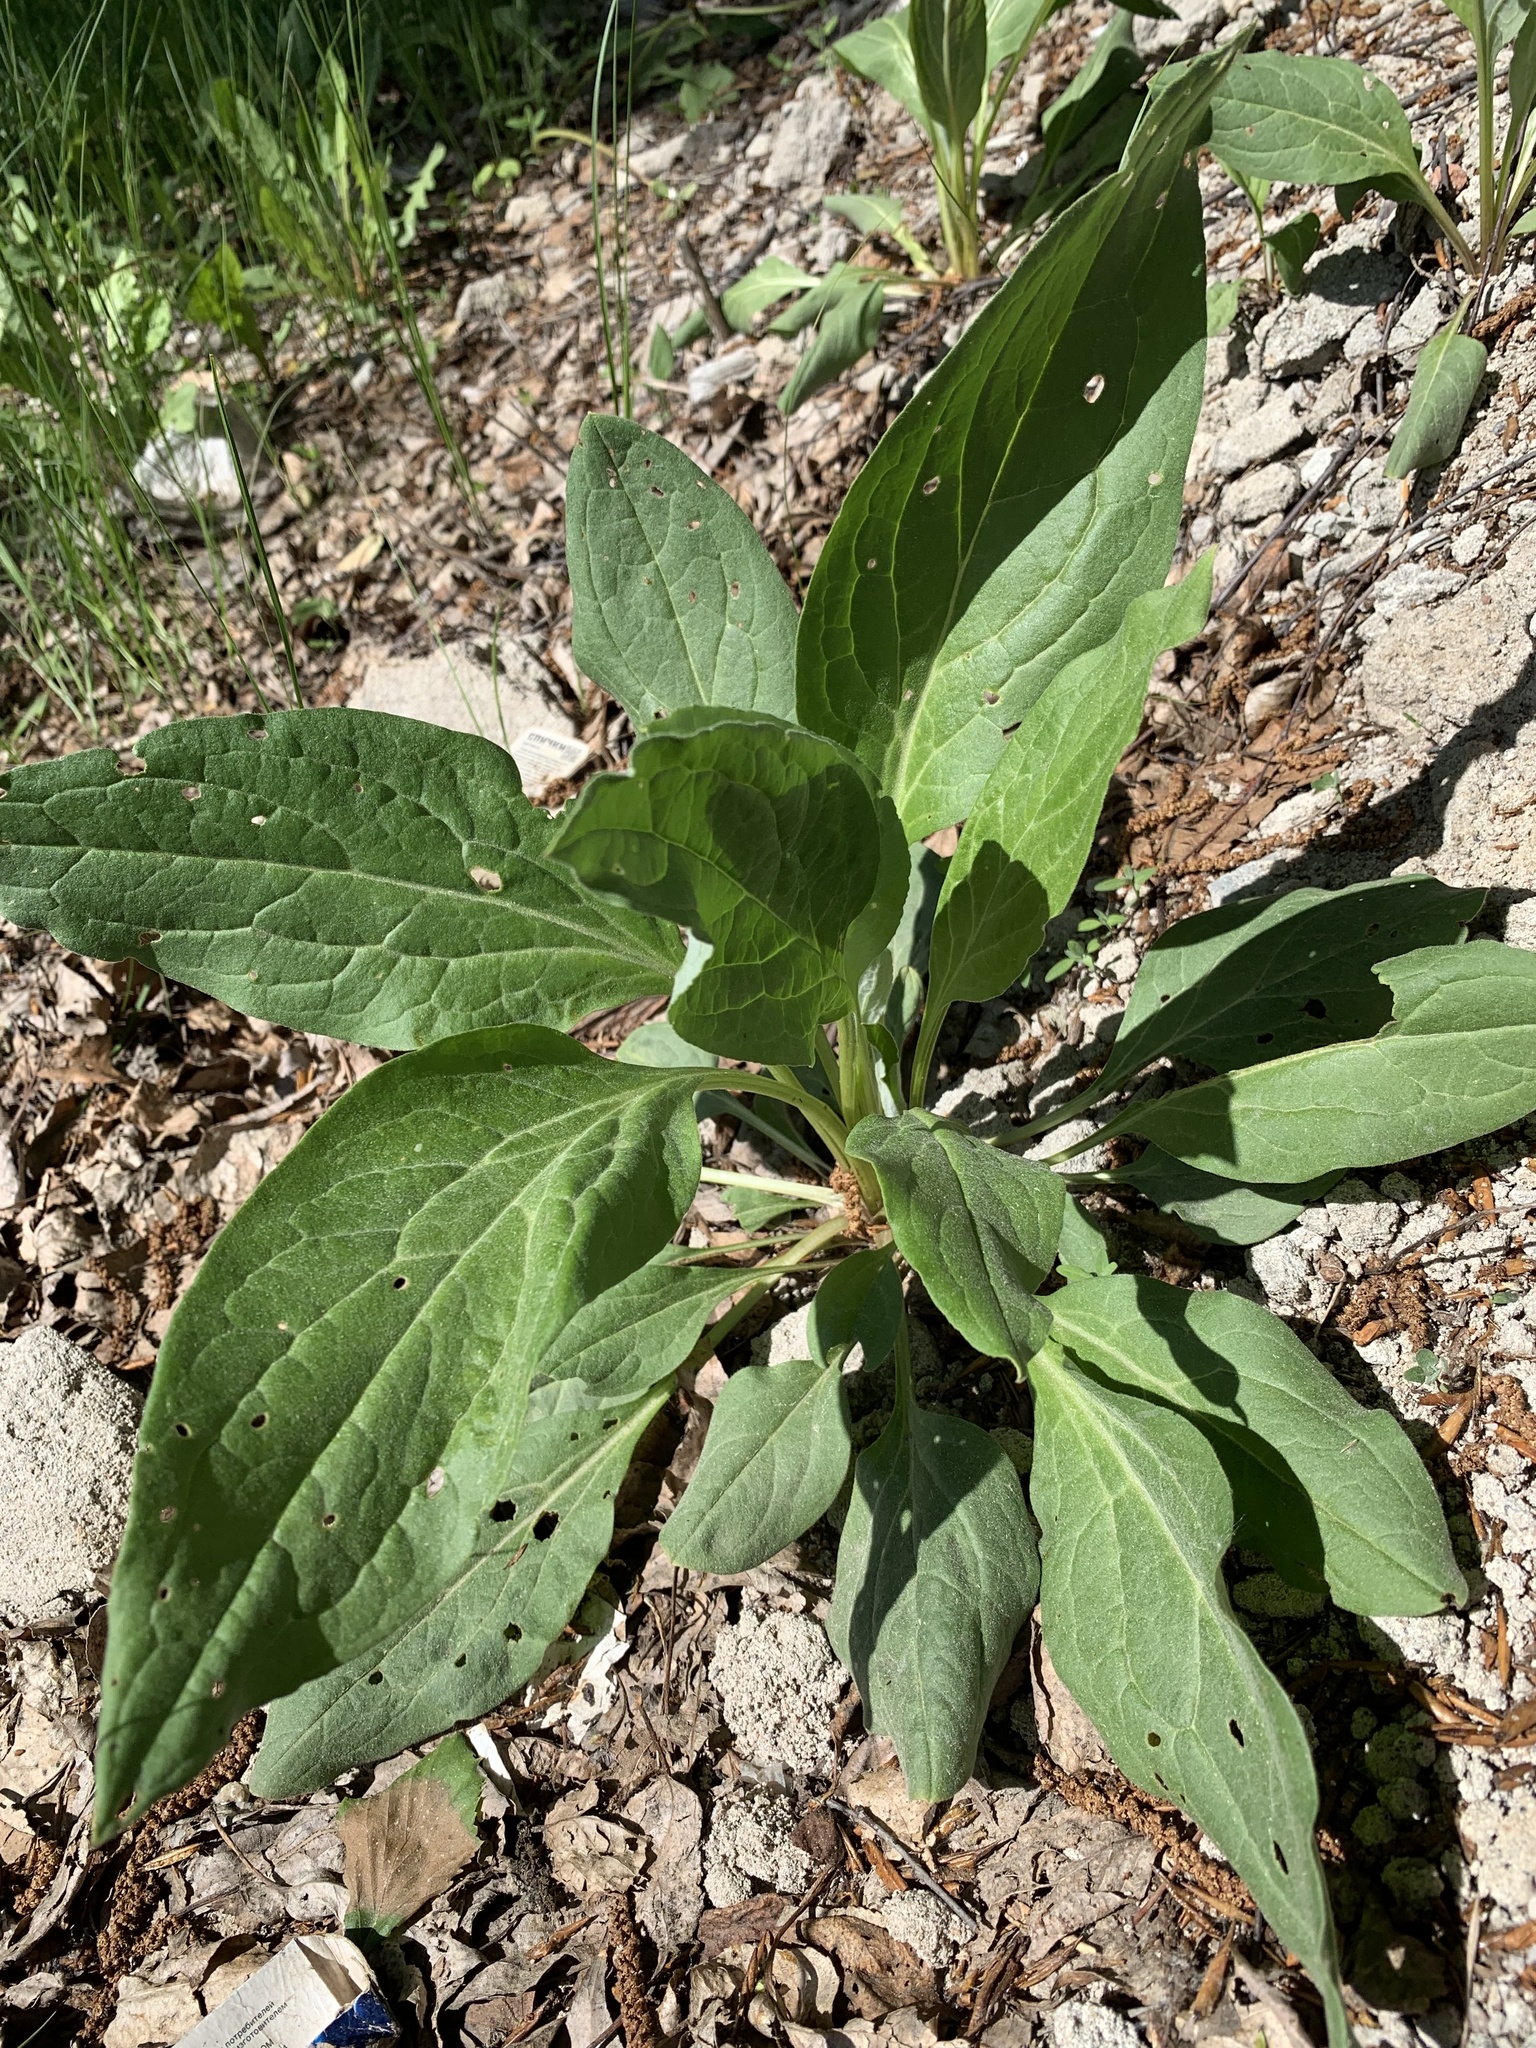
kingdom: Plantae
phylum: Tracheophyta
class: Magnoliopsida
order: Boraginales
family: Boraginaceae
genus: Cynoglossum
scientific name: Cynoglossum officinale
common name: Hound's-tongue
